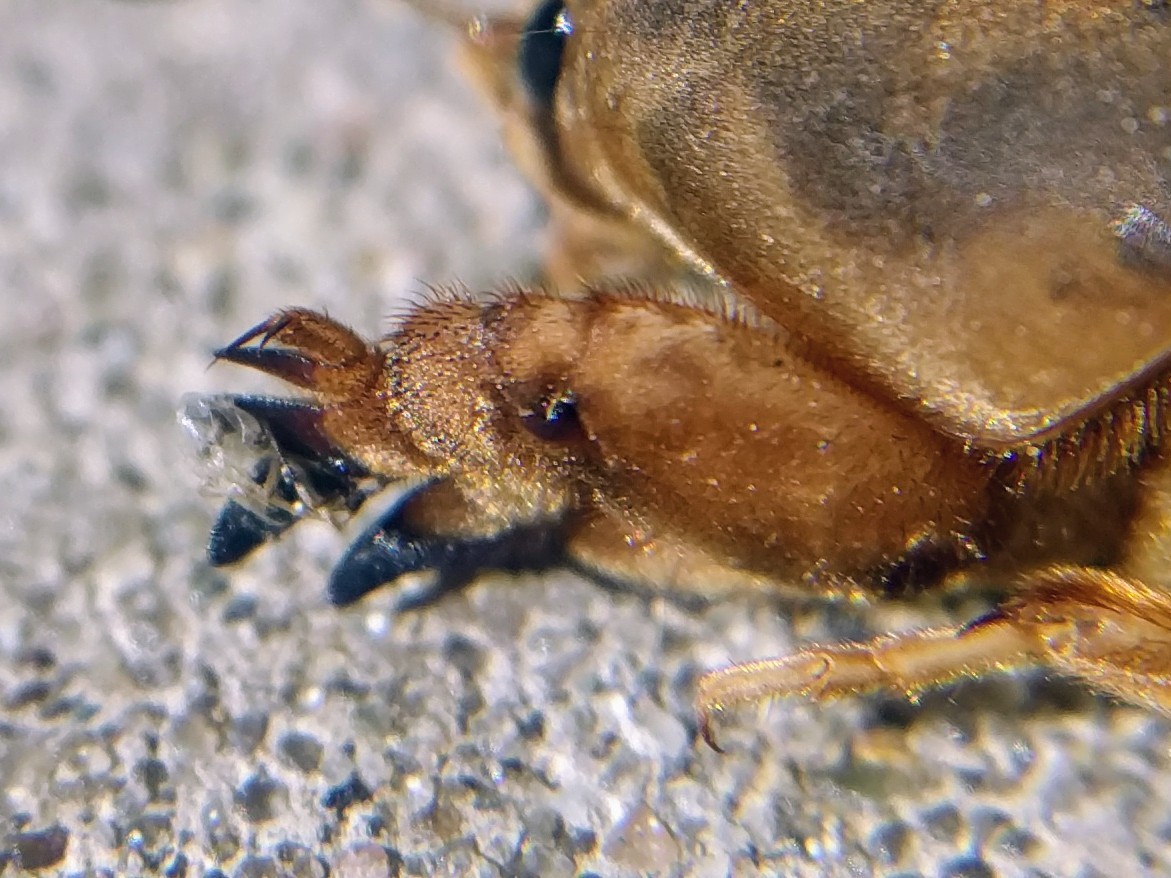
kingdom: Animalia
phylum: Arthropoda
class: Insecta
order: Orthoptera
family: Gryllotalpidae
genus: Neoscapteriscus
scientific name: Neoscapteriscus vicinus
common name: Tawny mole cricket
